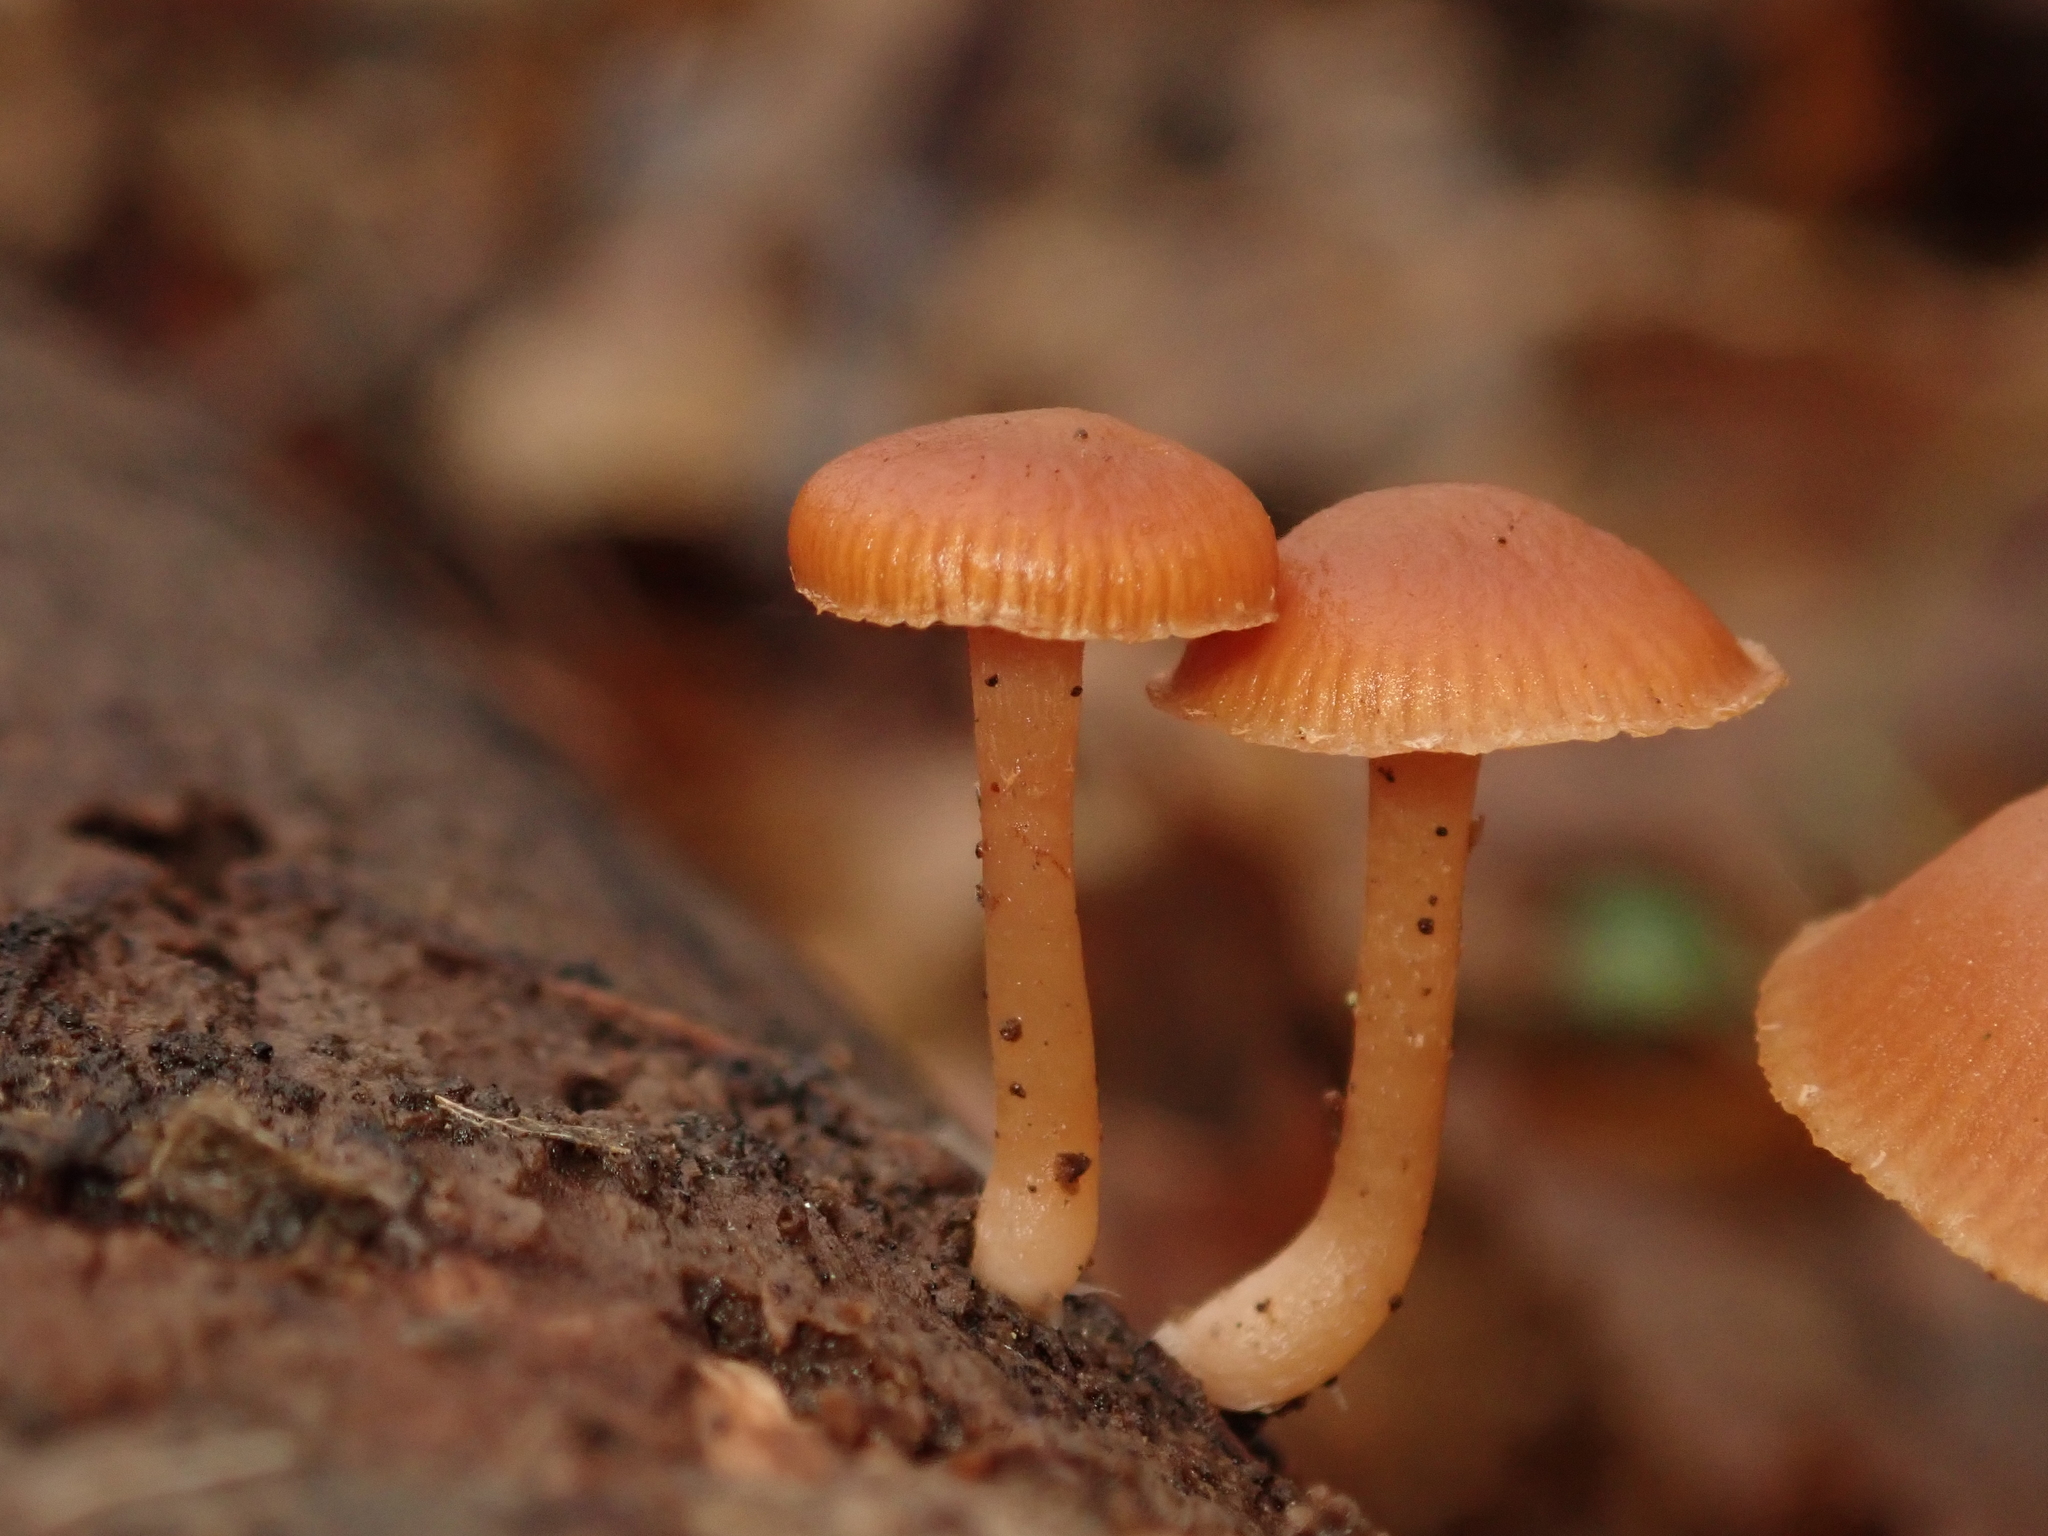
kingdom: Fungi
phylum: Basidiomycota
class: Agaricomycetes
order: Agaricales
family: Tubariaceae
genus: Tubaria
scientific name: Tubaria furfuracea
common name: Scurfy twiglet
